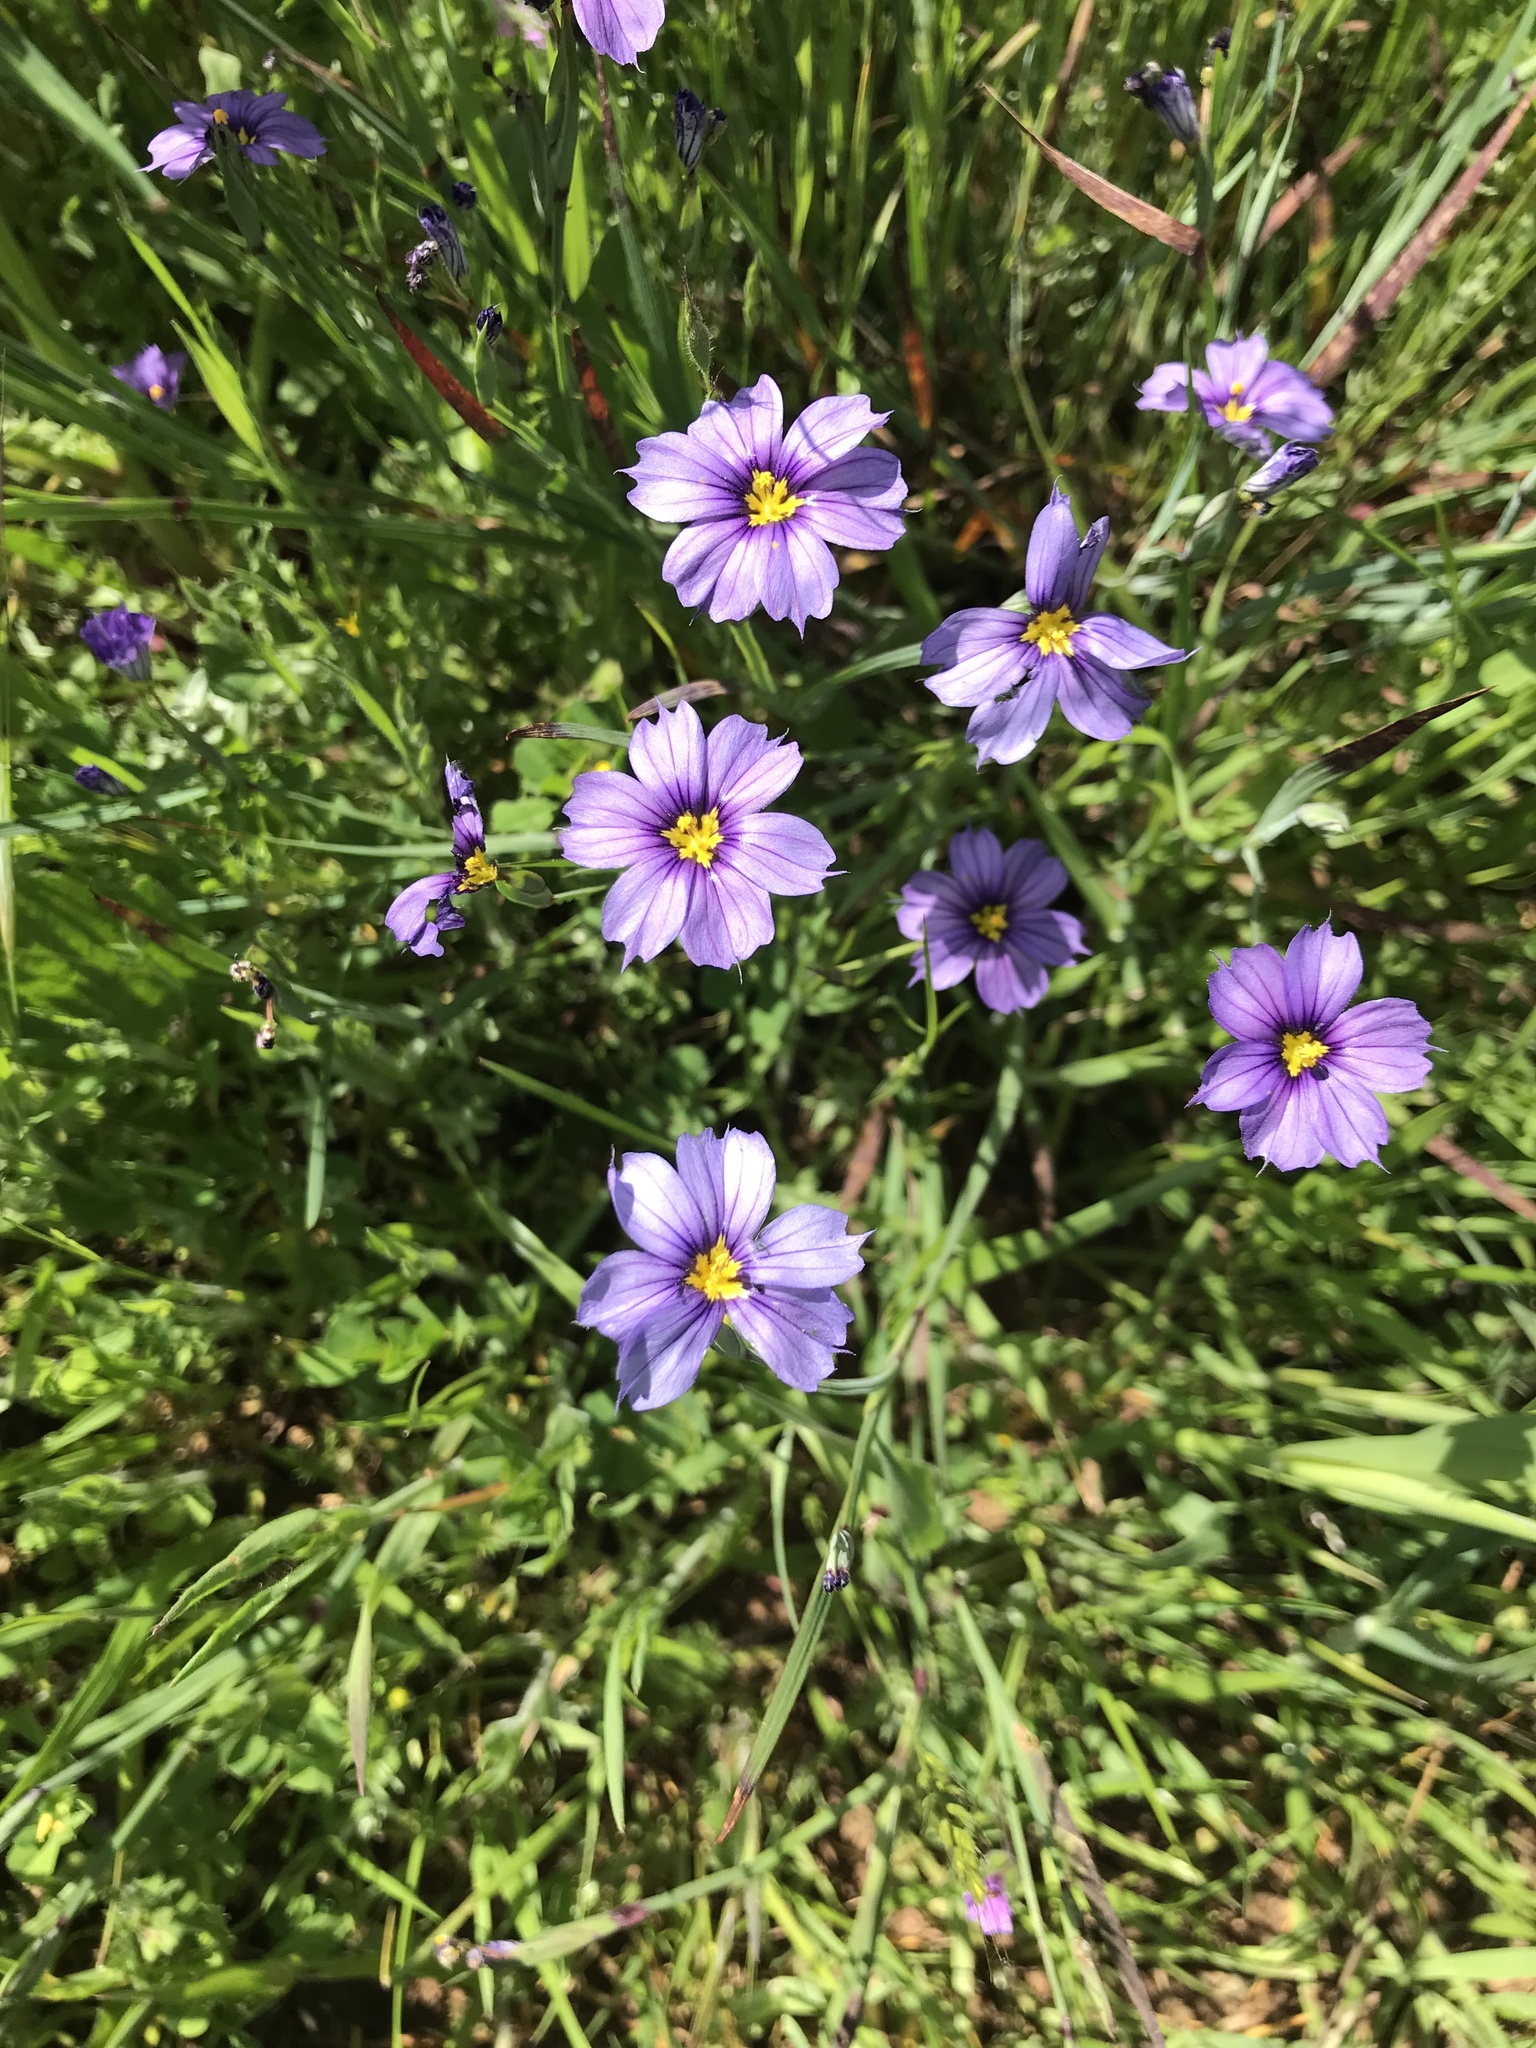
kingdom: Plantae
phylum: Tracheophyta
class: Liliopsida
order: Asparagales
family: Iridaceae
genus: Sisyrinchium
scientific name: Sisyrinchium bellum
